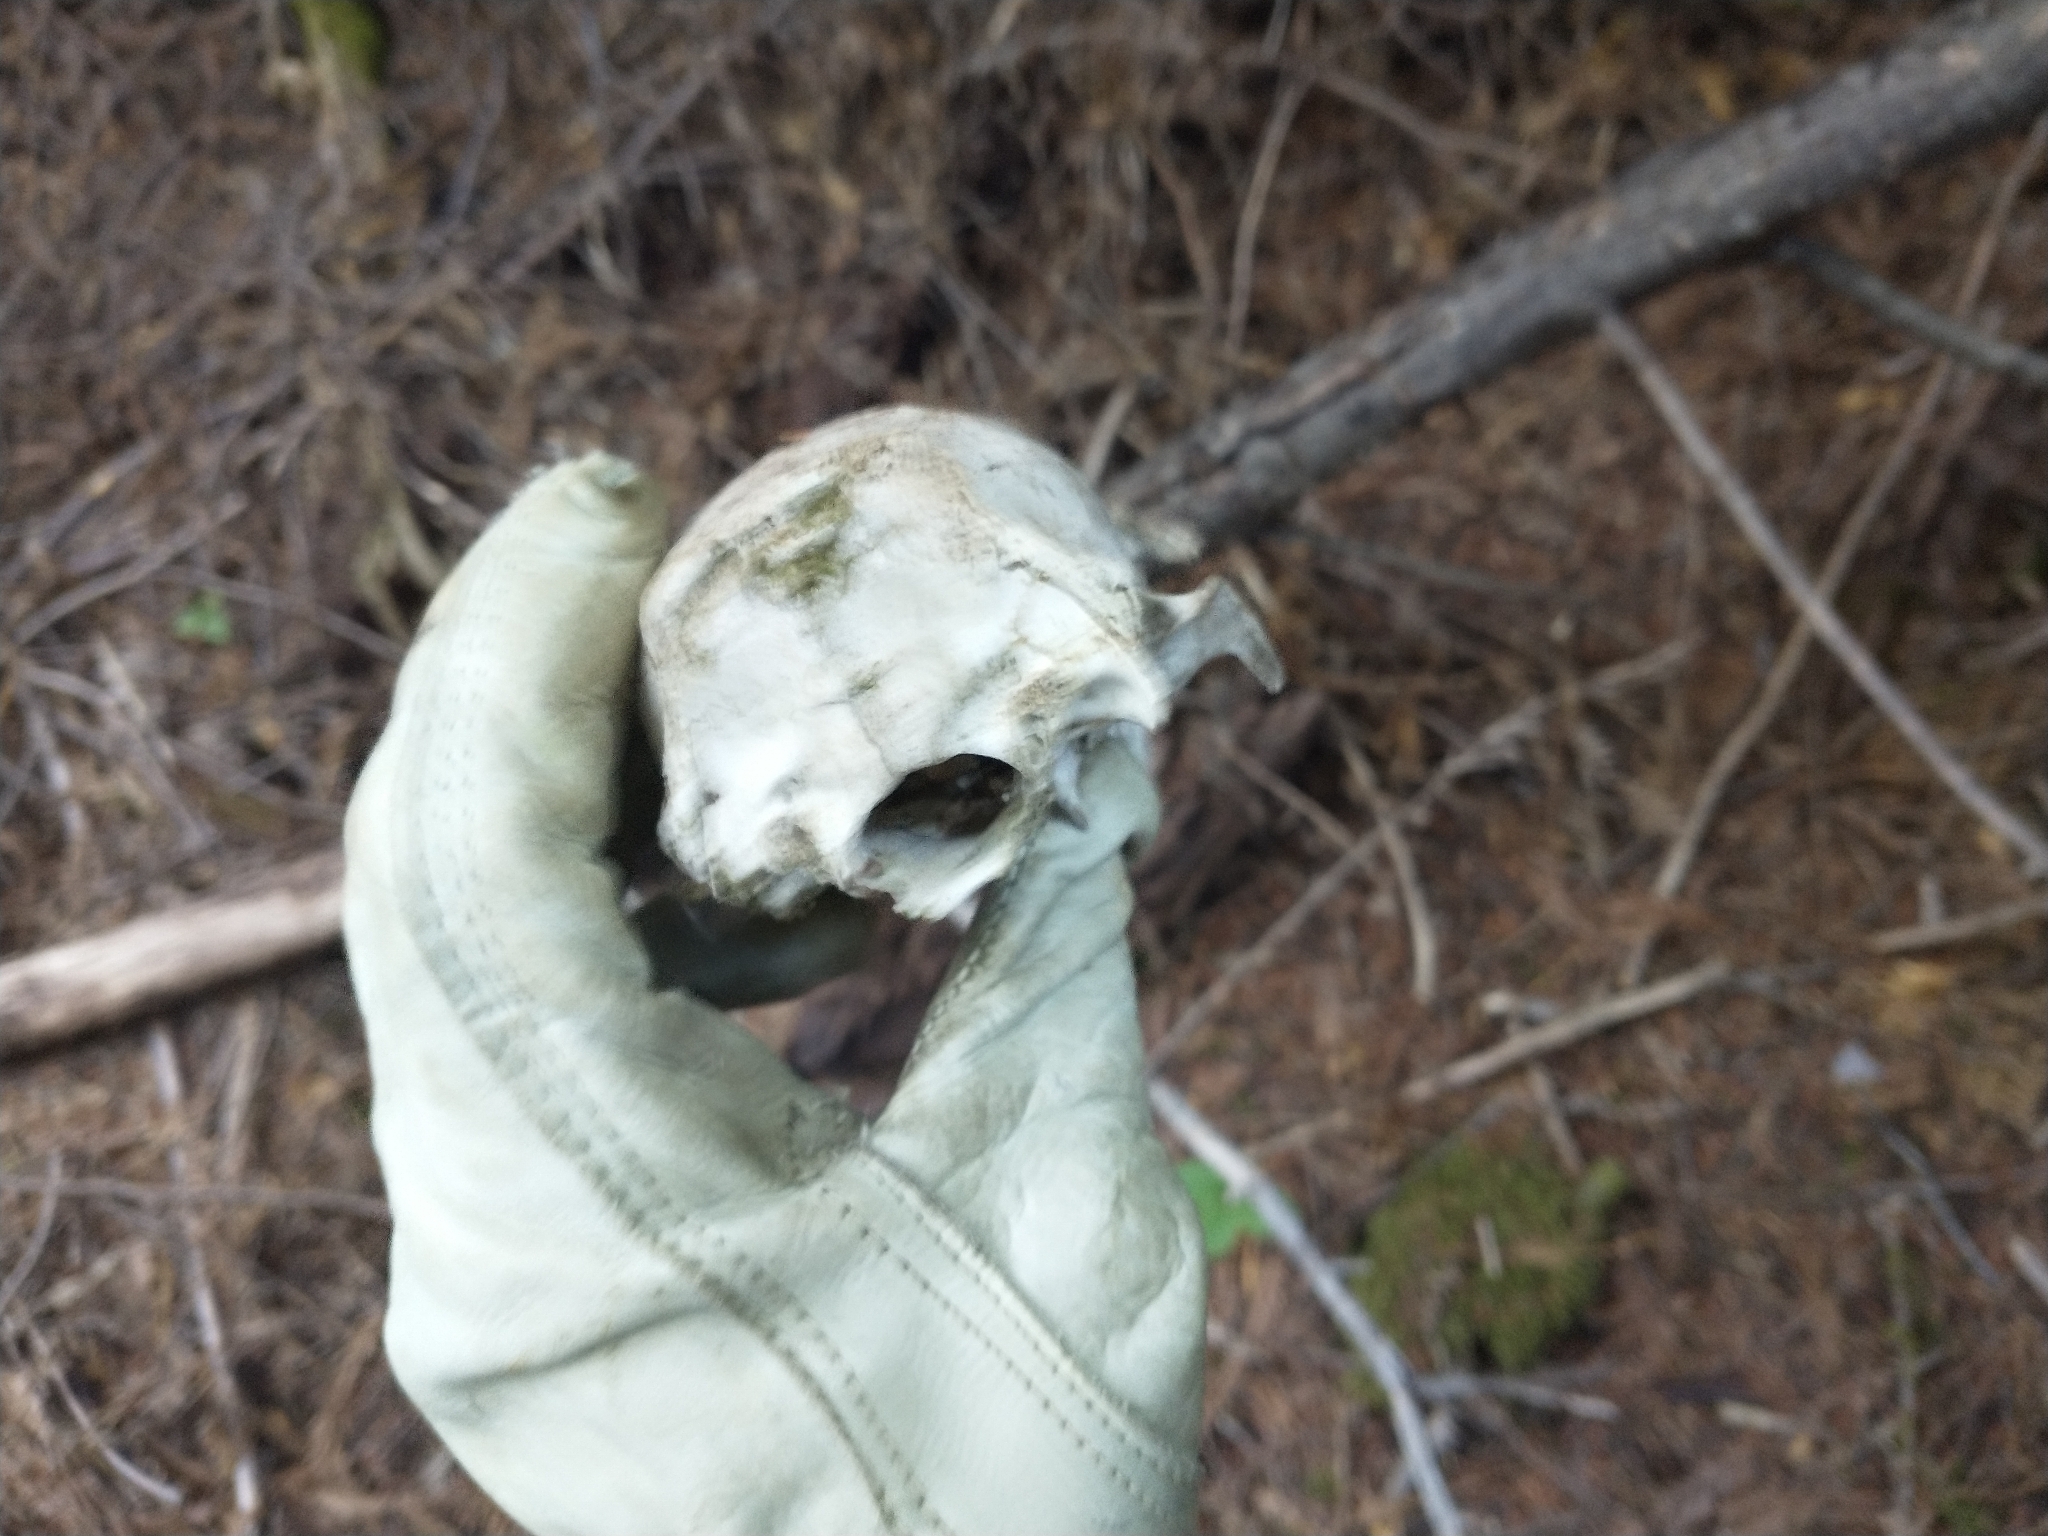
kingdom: Animalia
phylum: Chordata
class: Mammalia
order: Artiodactyla
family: Cervidae
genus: Odocoileus
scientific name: Odocoileus hemionus
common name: Mule deer
